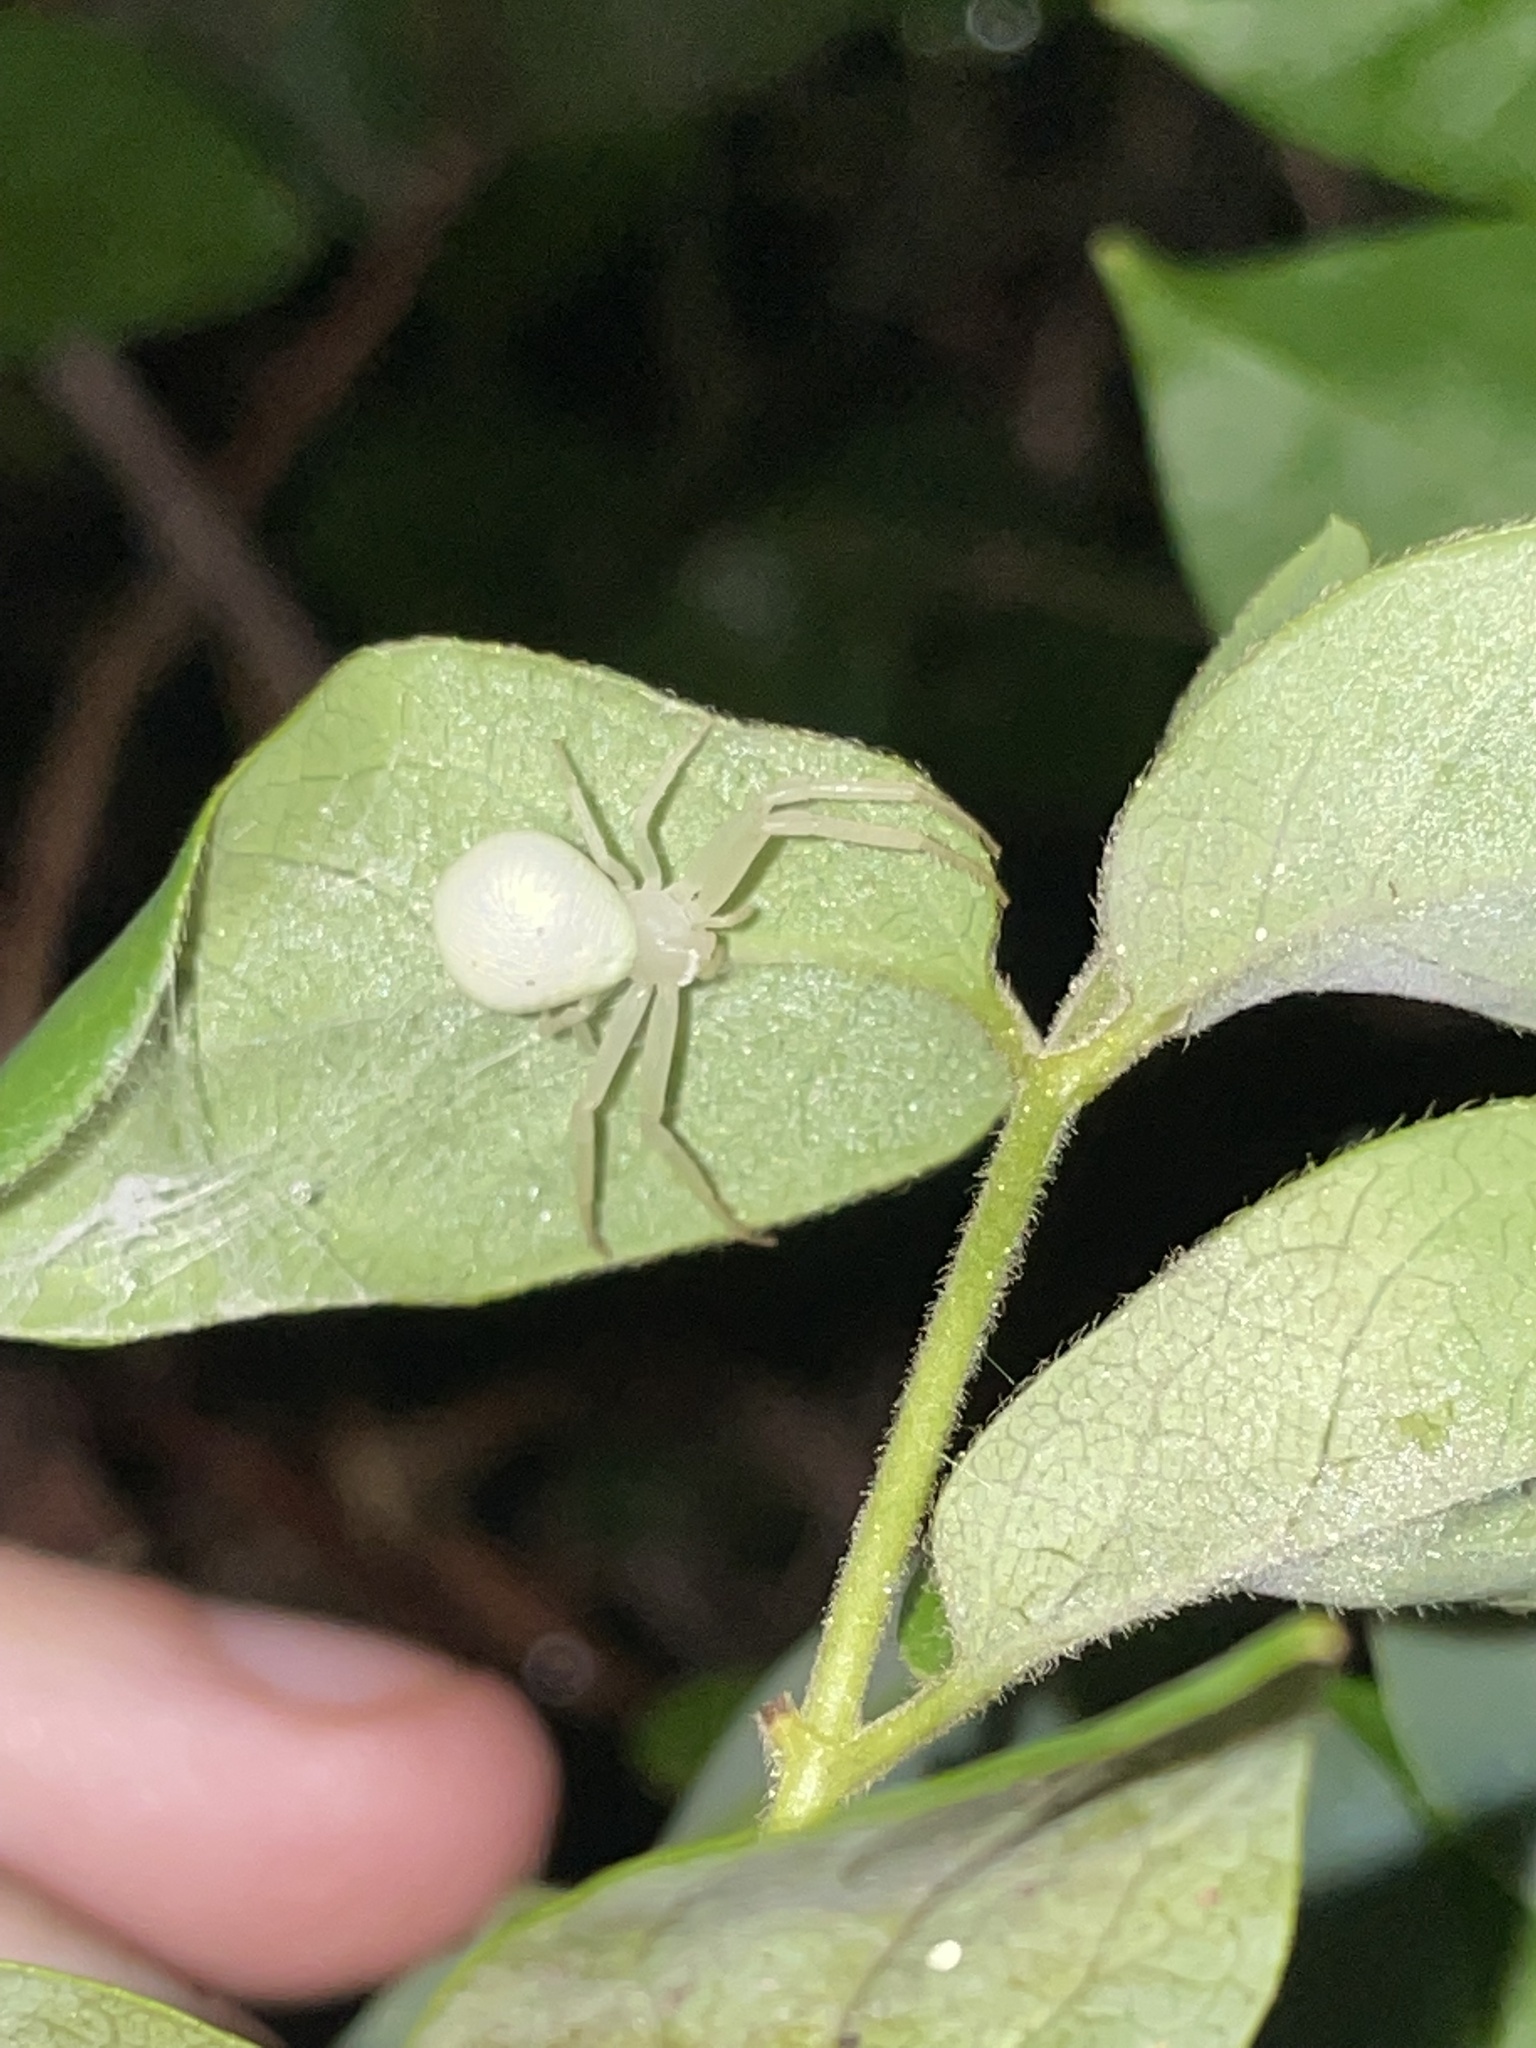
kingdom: Animalia
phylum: Arthropoda
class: Arachnida
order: Araneae
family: Thomisidae
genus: Misumessus
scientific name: Misumessus oblongus
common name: American green crab spider
